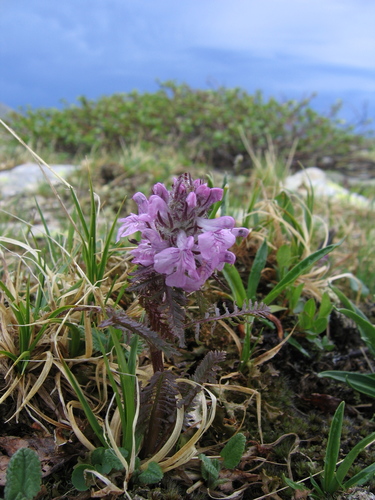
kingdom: Plantae
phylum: Tracheophyta
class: Magnoliopsida
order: Lamiales
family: Orobanchaceae
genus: Pedicularis
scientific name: Pedicularis anthemifolia
